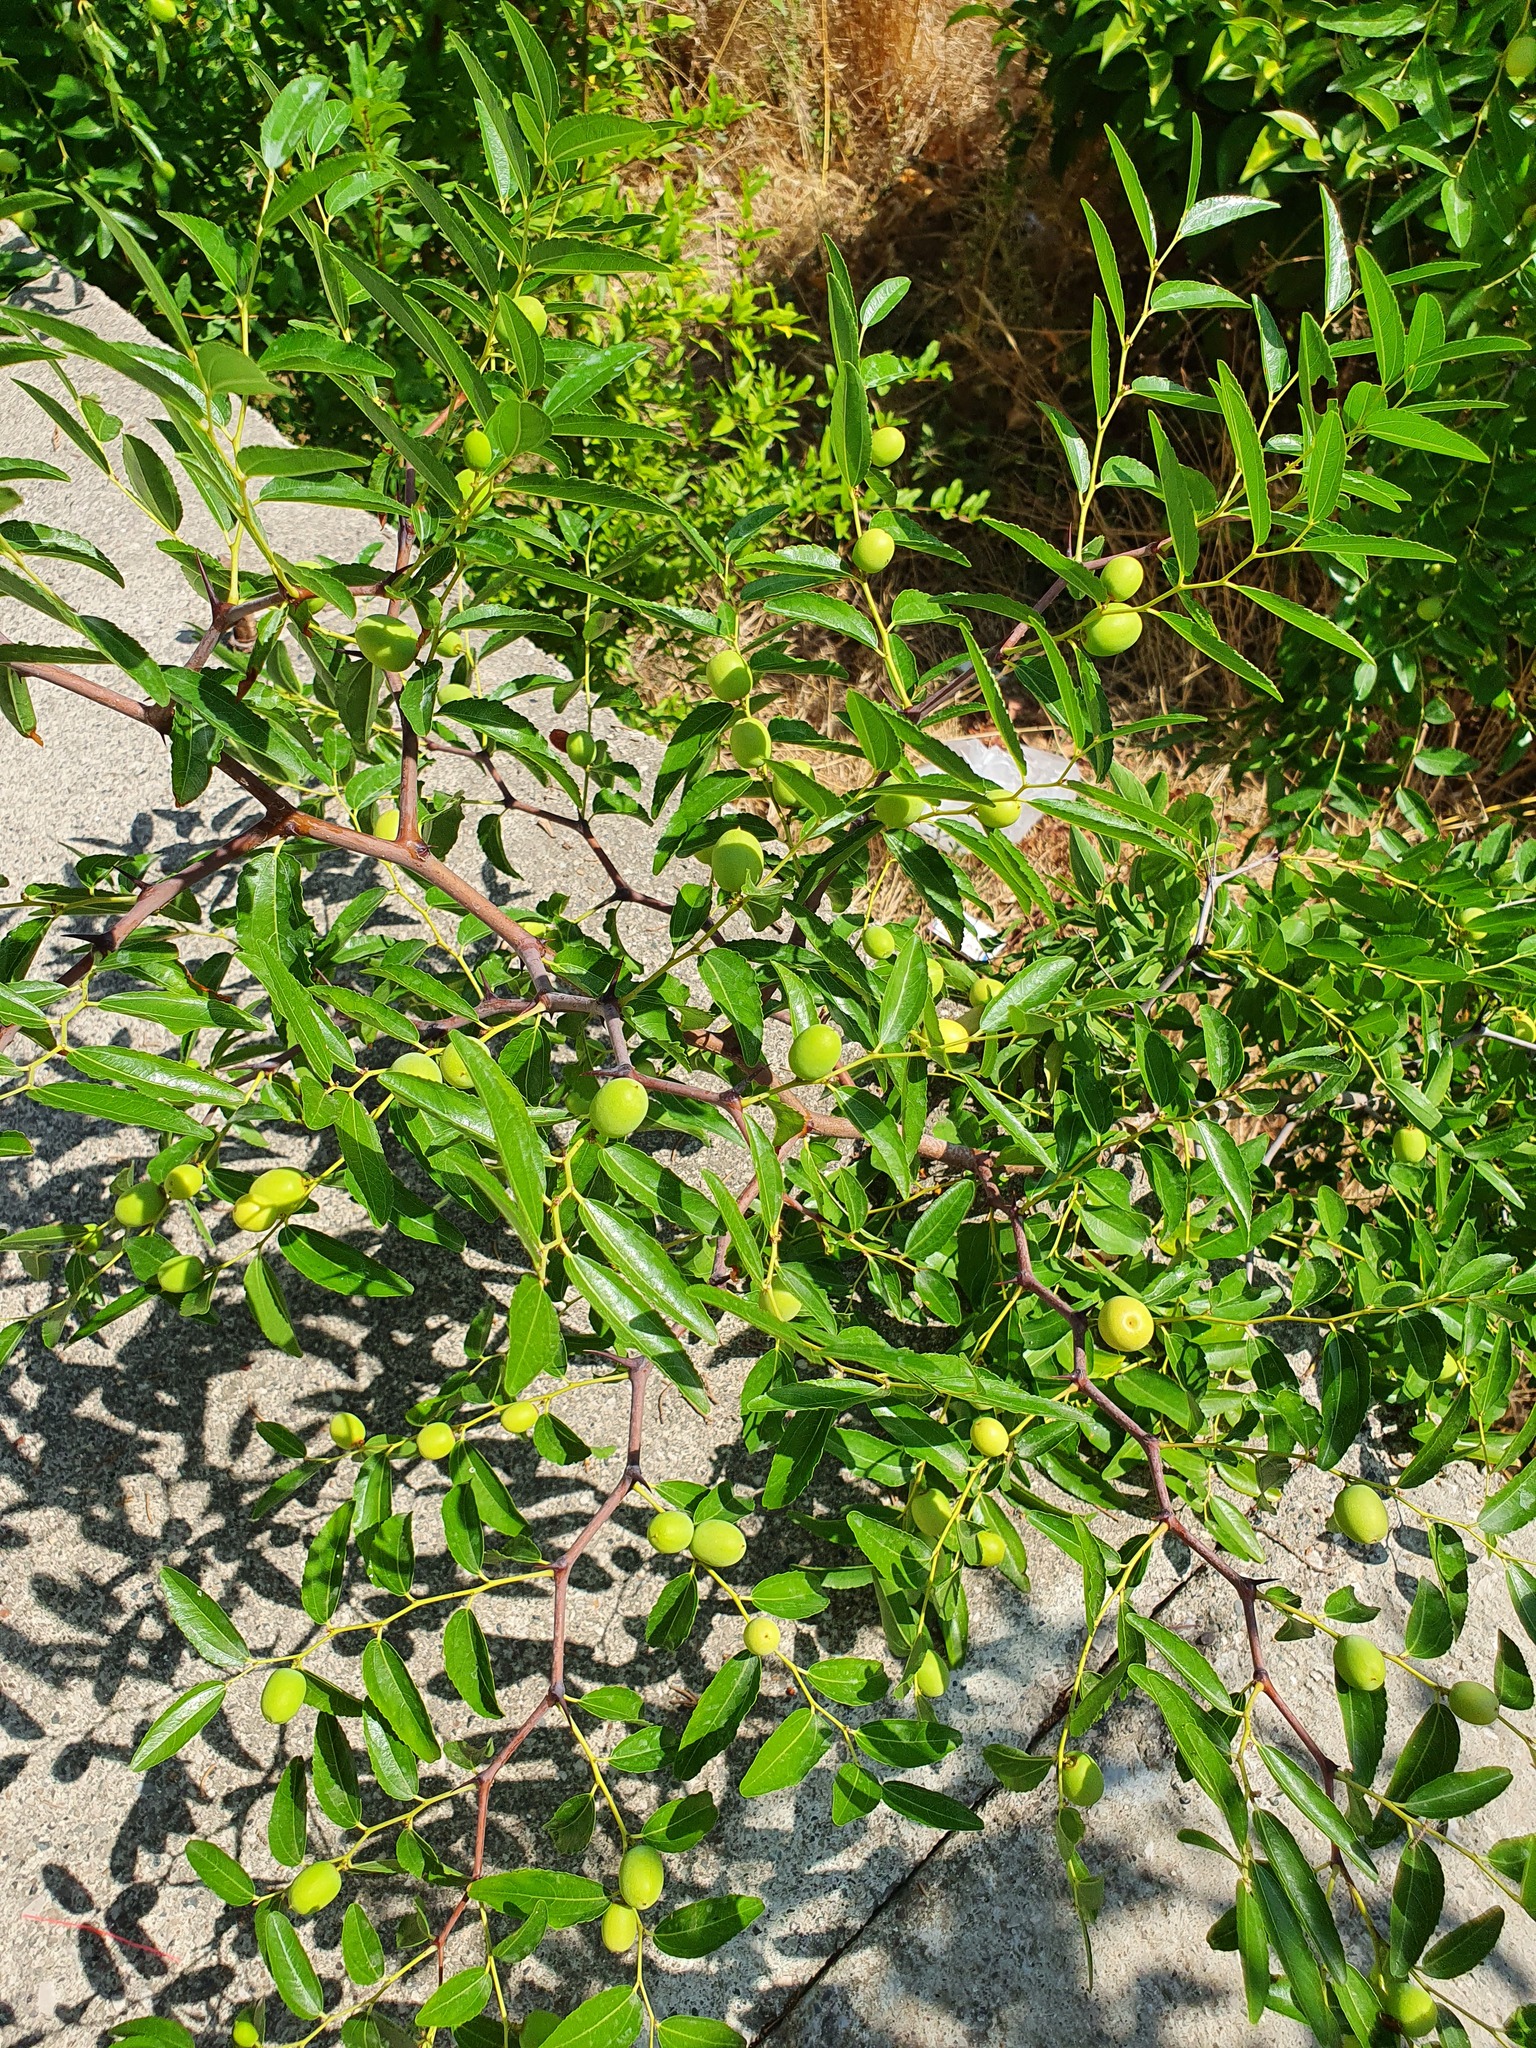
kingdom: Plantae
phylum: Tracheophyta
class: Magnoliopsida
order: Rosales
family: Rhamnaceae
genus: Ziziphus
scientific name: Ziziphus jujuba
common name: Jujube red date
